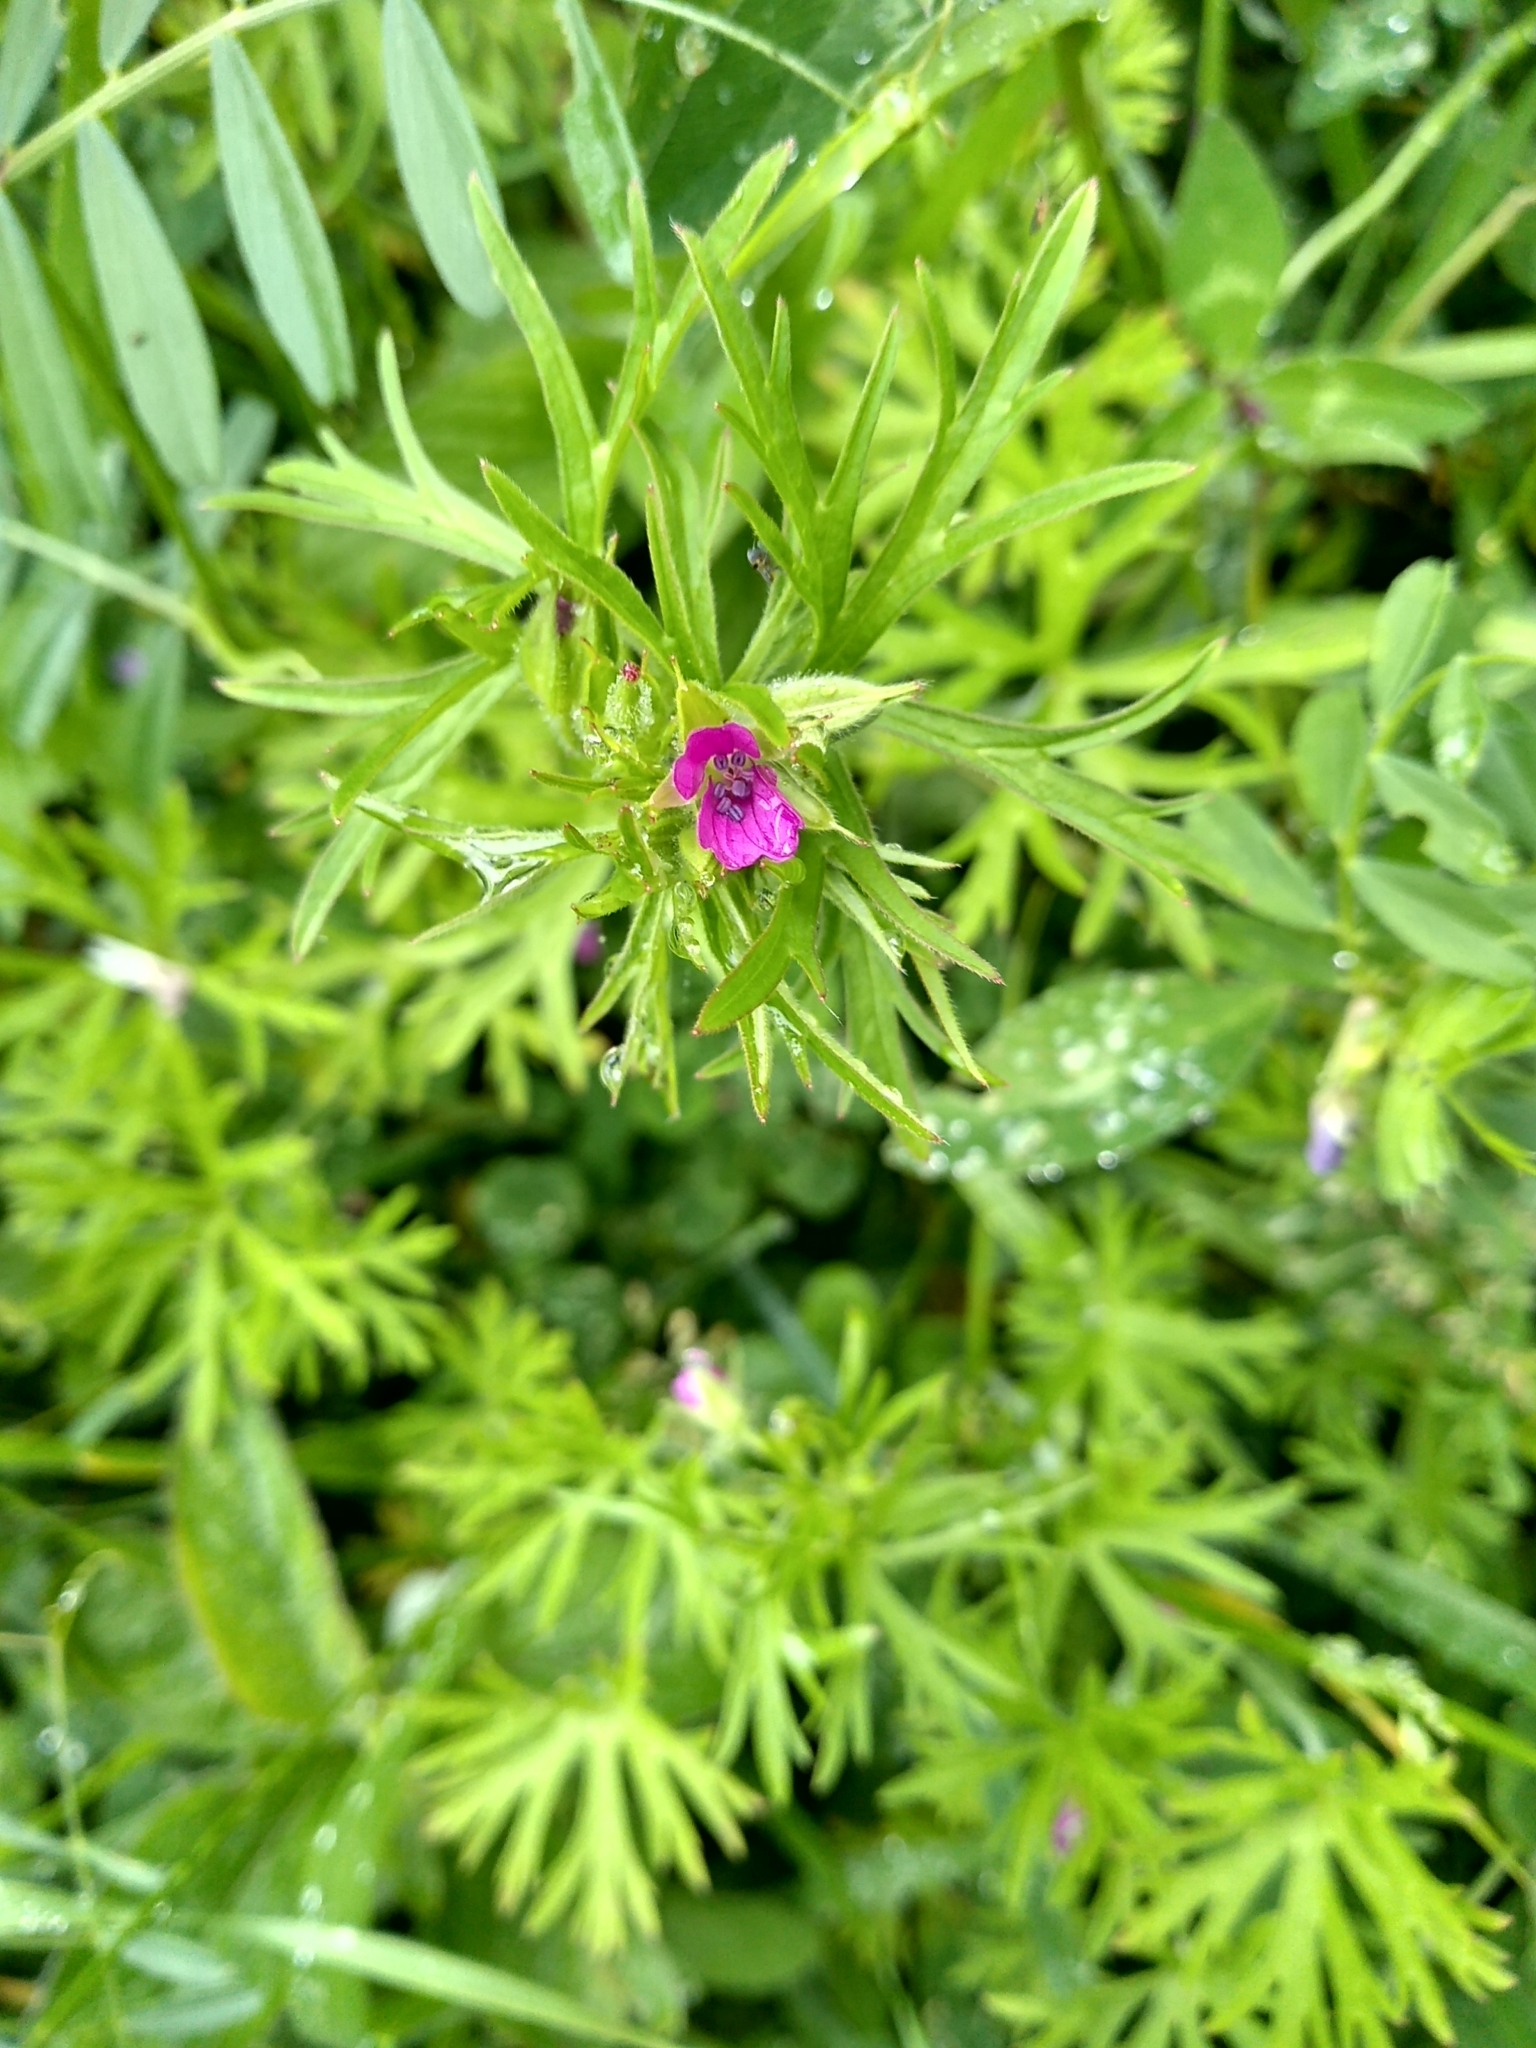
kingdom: Plantae
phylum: Tracheophyta
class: Magnoliopsida
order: Geraniales
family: Geraniaceae
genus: Geranium
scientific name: Geranium dissectum
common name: Cut-leaved crane's-bill
